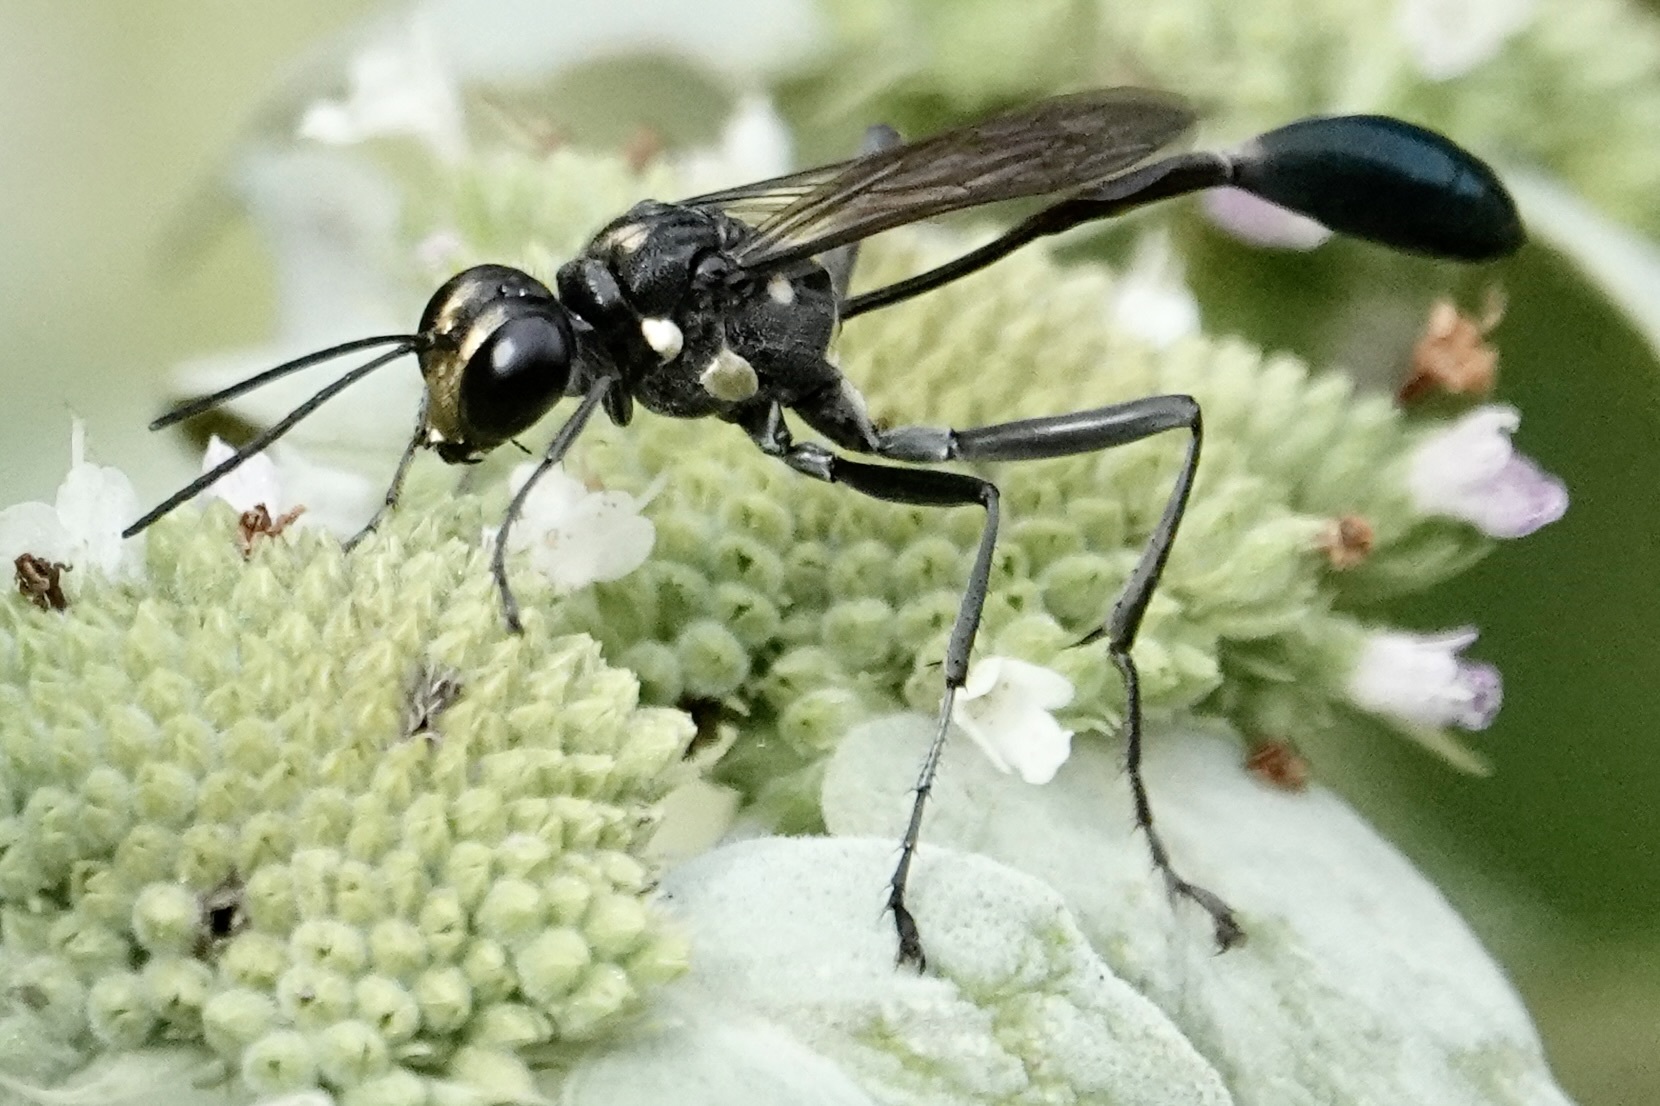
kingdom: Animalia
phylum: Arthropoda
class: Insecta
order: Hymenoptera
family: Sphecidae
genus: Eremnophila
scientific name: Eremnophila aureonotata
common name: Gold-marked thread-waisted wasp
